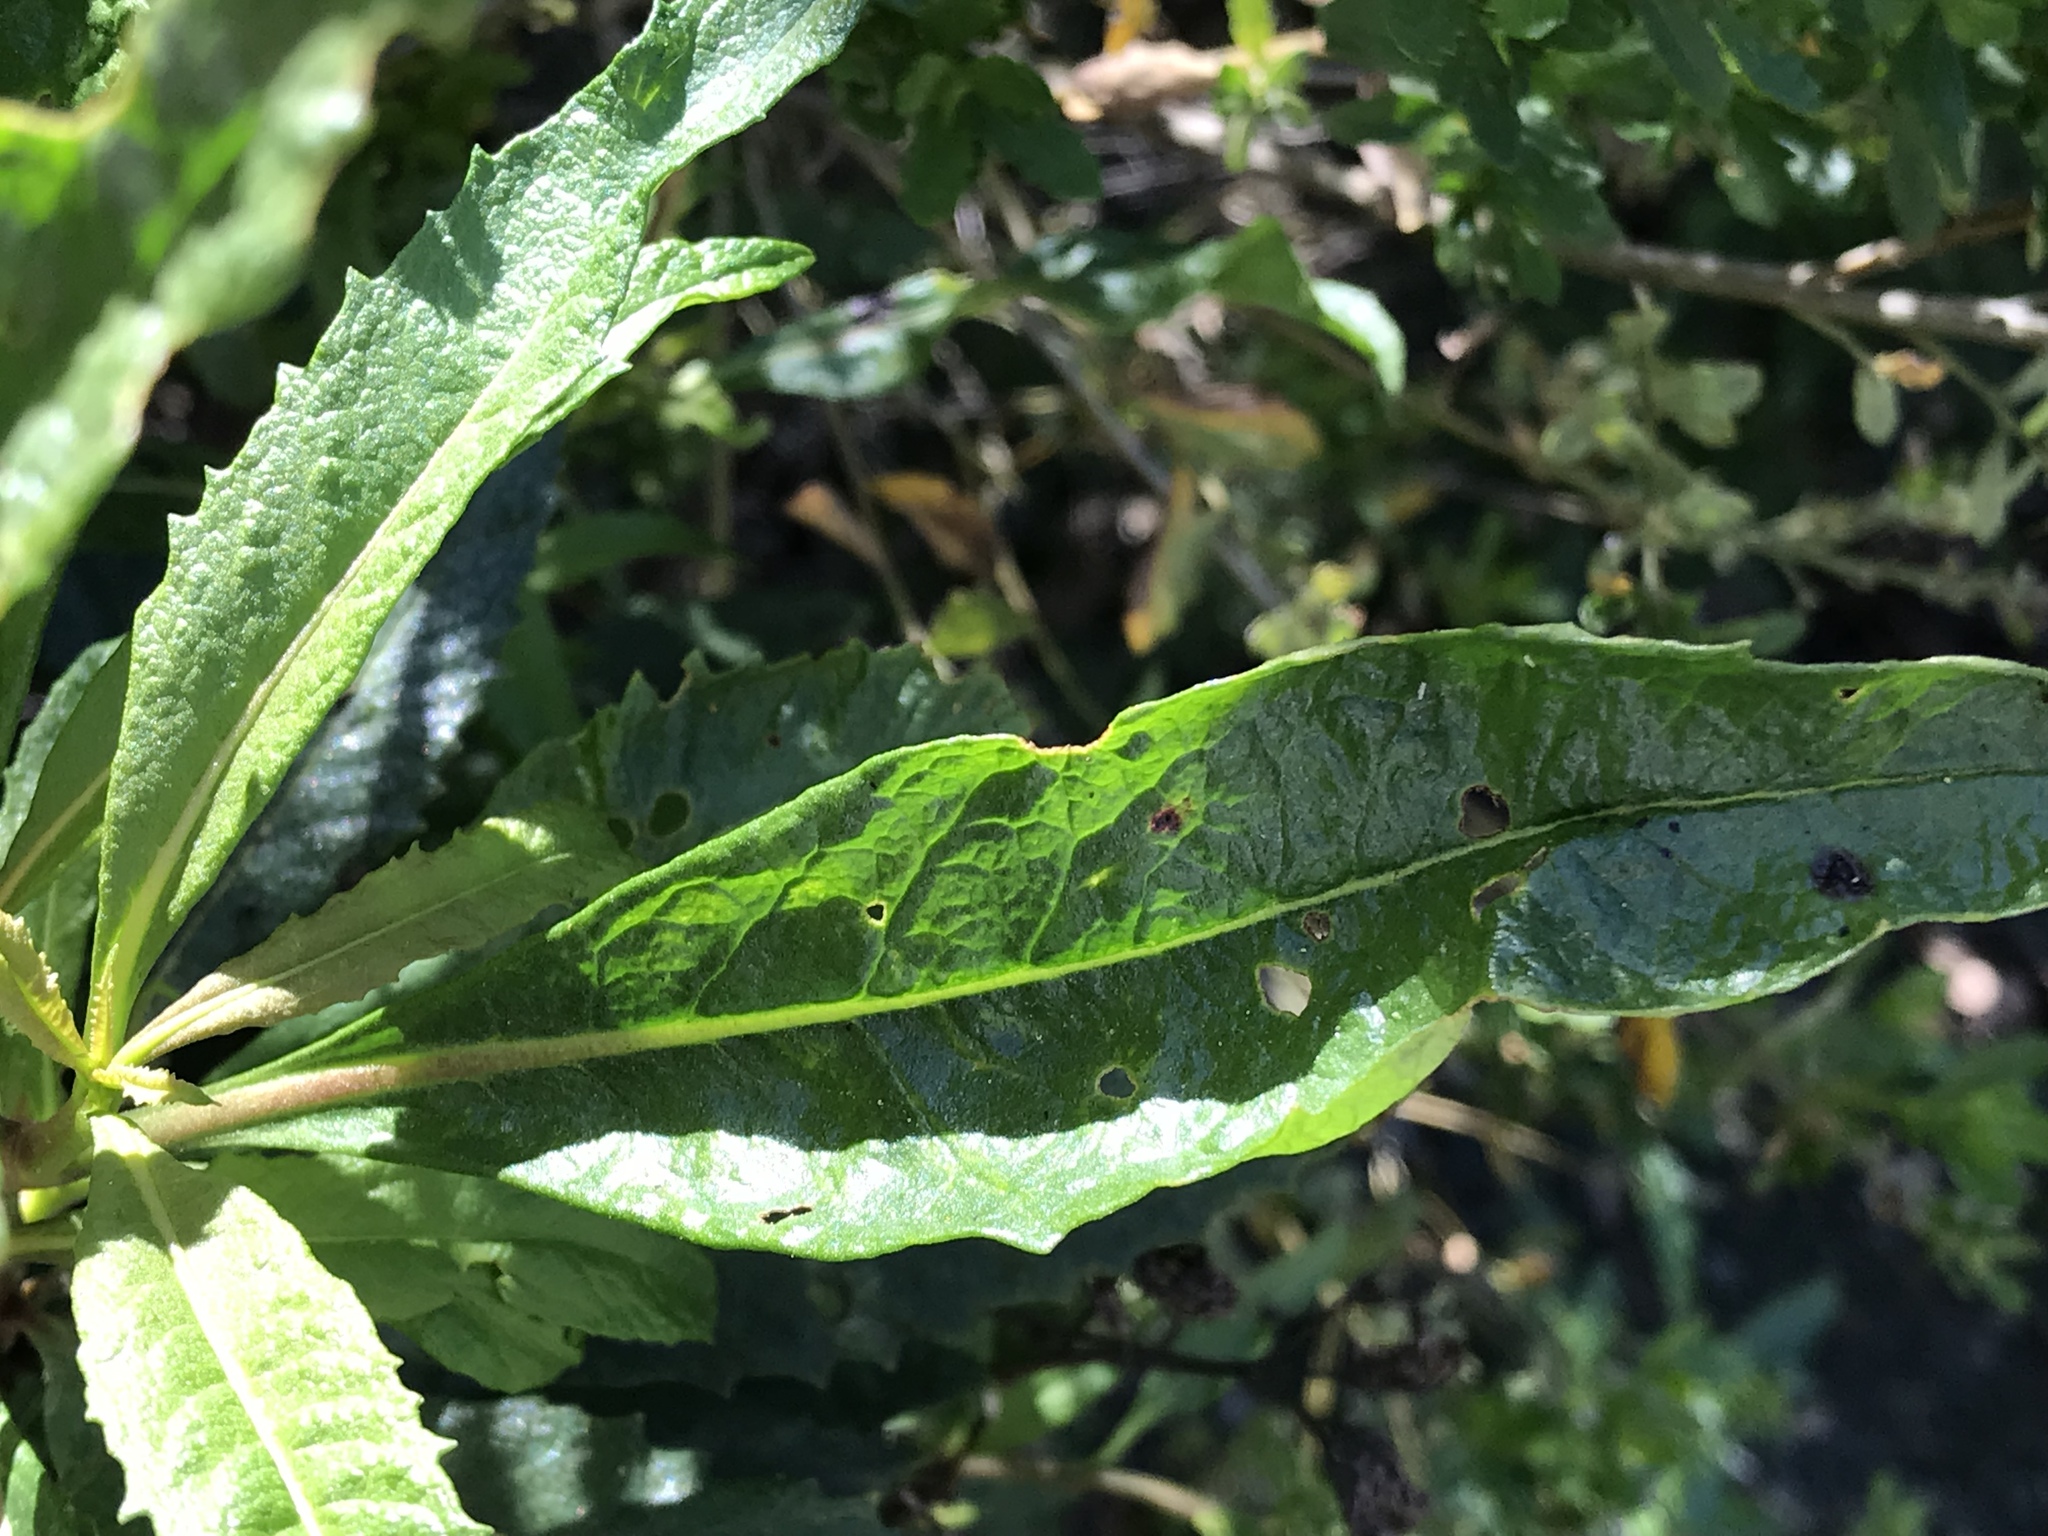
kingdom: Plantae
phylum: Tracheophyta
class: Magnoliopsida
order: Boraginales
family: Namaceae
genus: Eriodictyon
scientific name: Eriodictyon californicum
